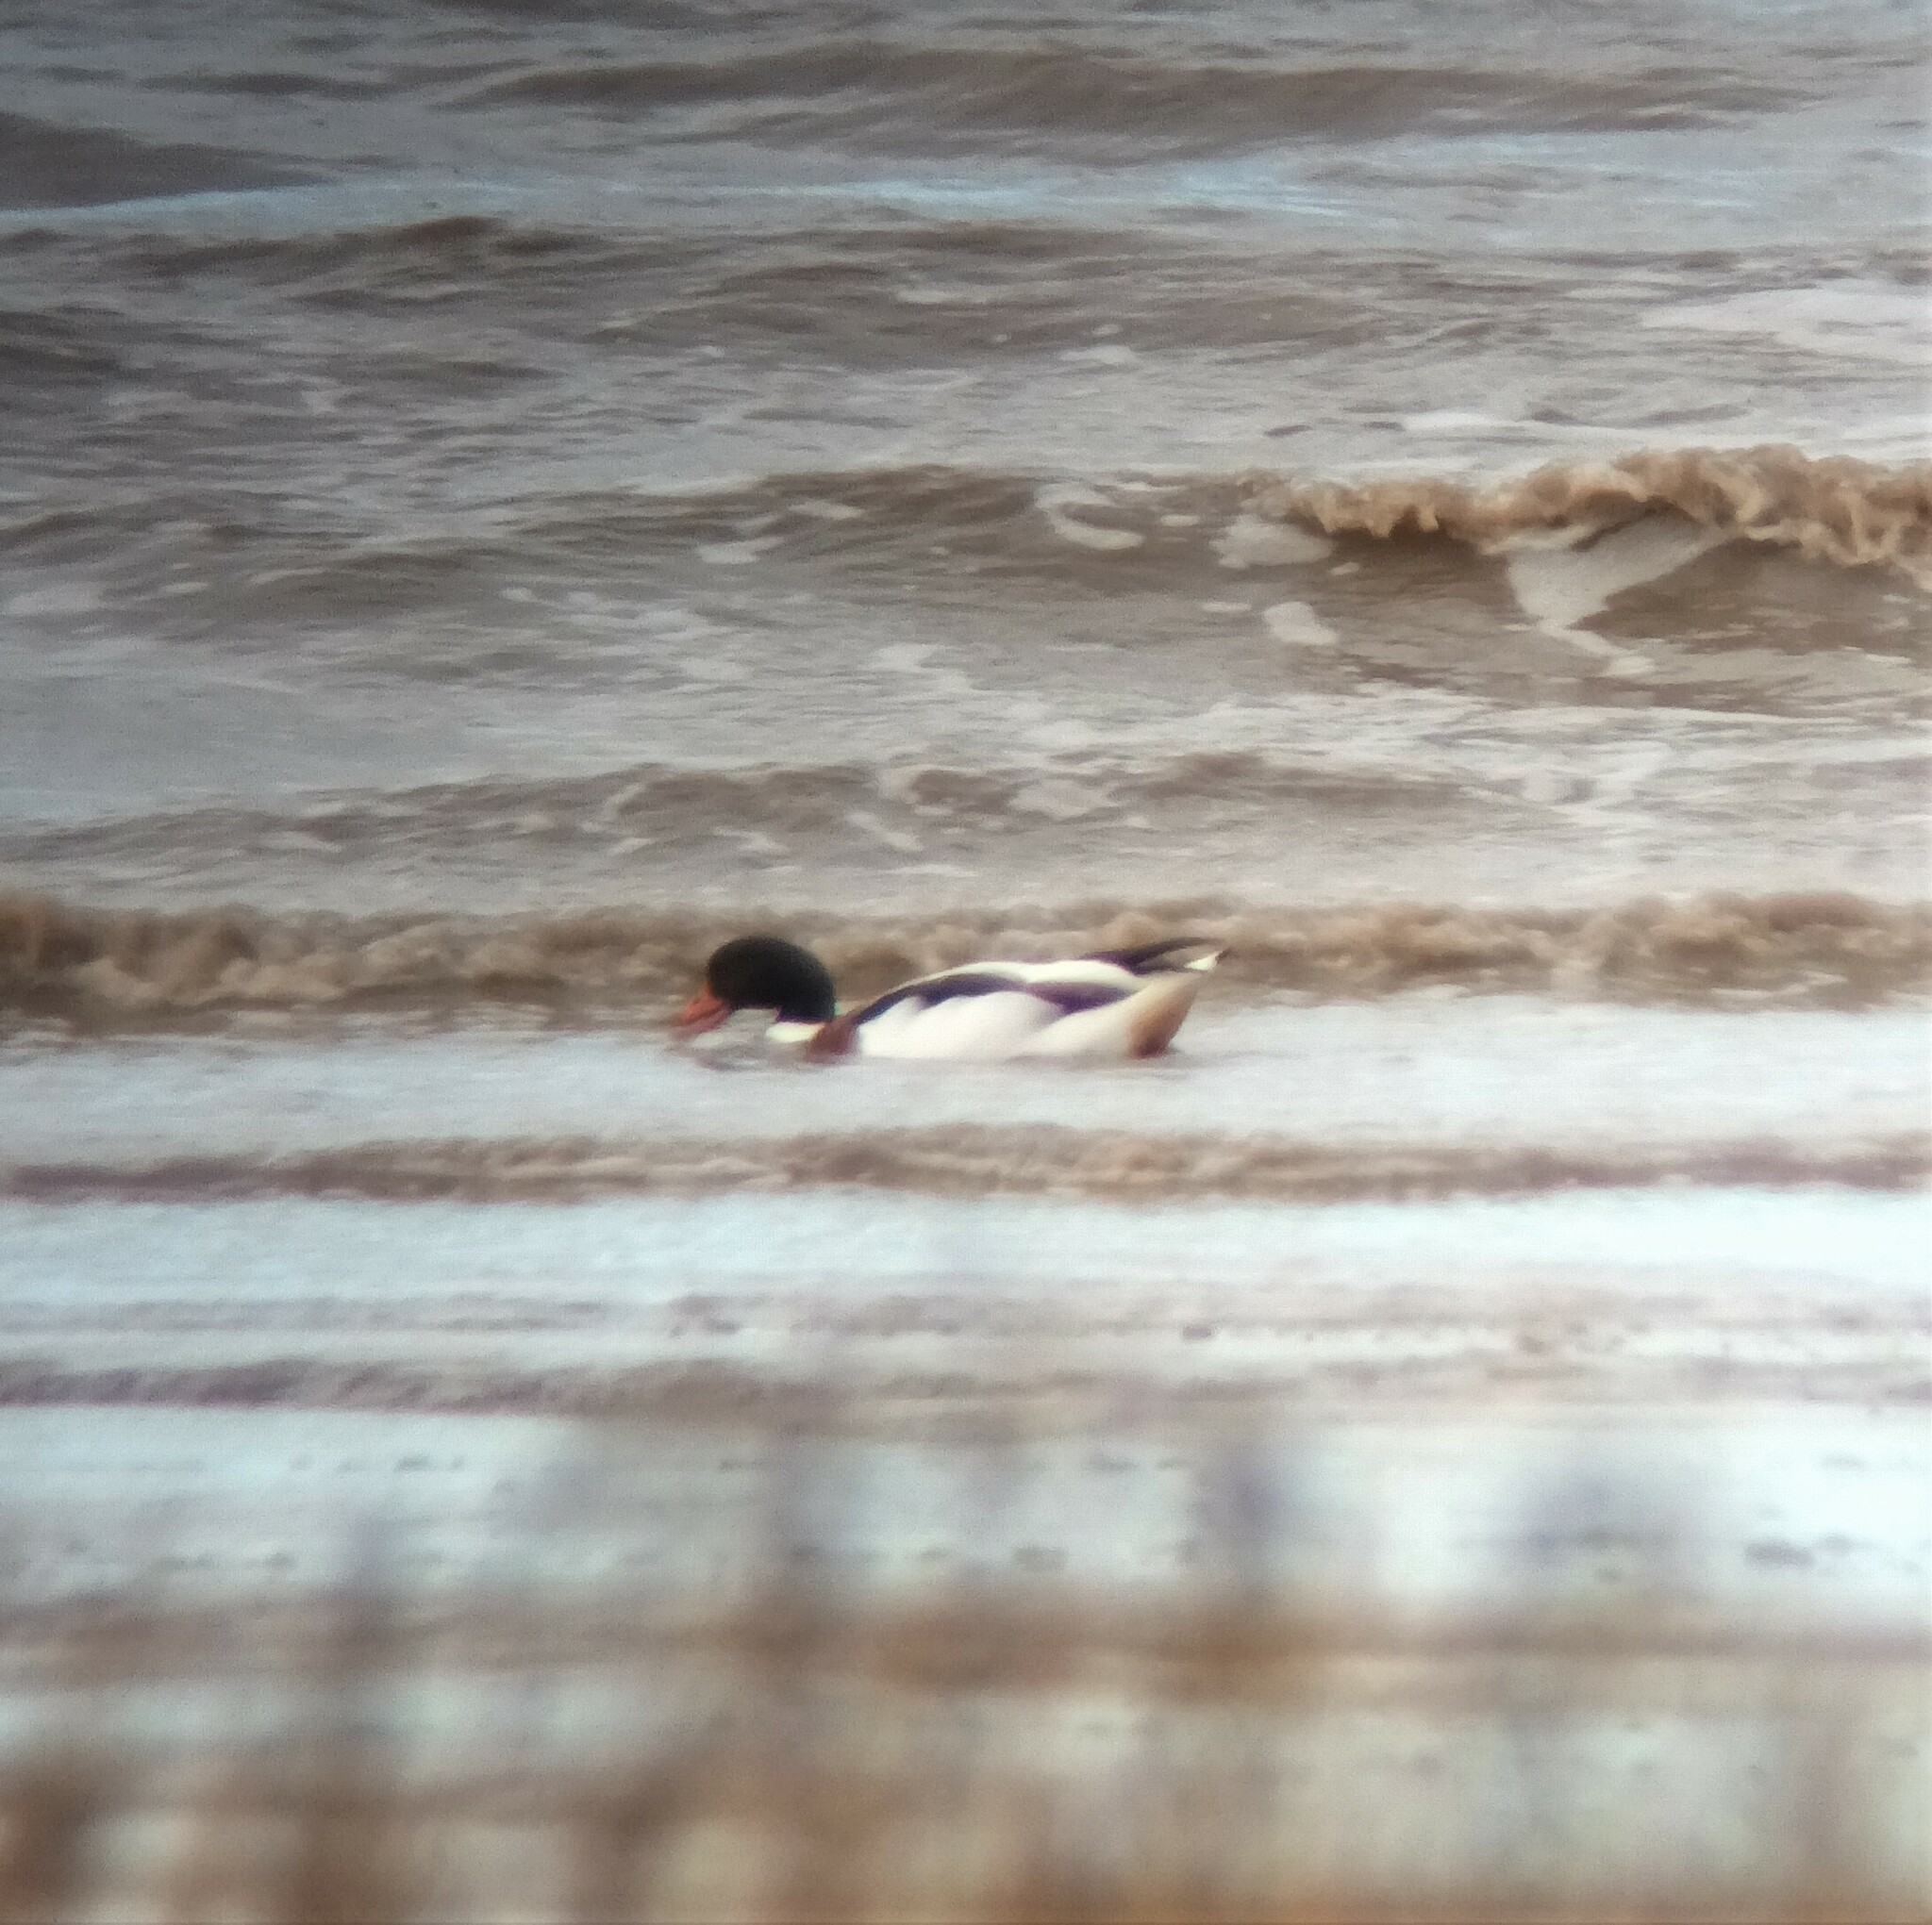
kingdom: Animalia
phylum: Chordata
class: Aves
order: Anseriformes
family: Anatidae
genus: Tadorna
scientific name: Tadorna tadorna
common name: Common shelduck
